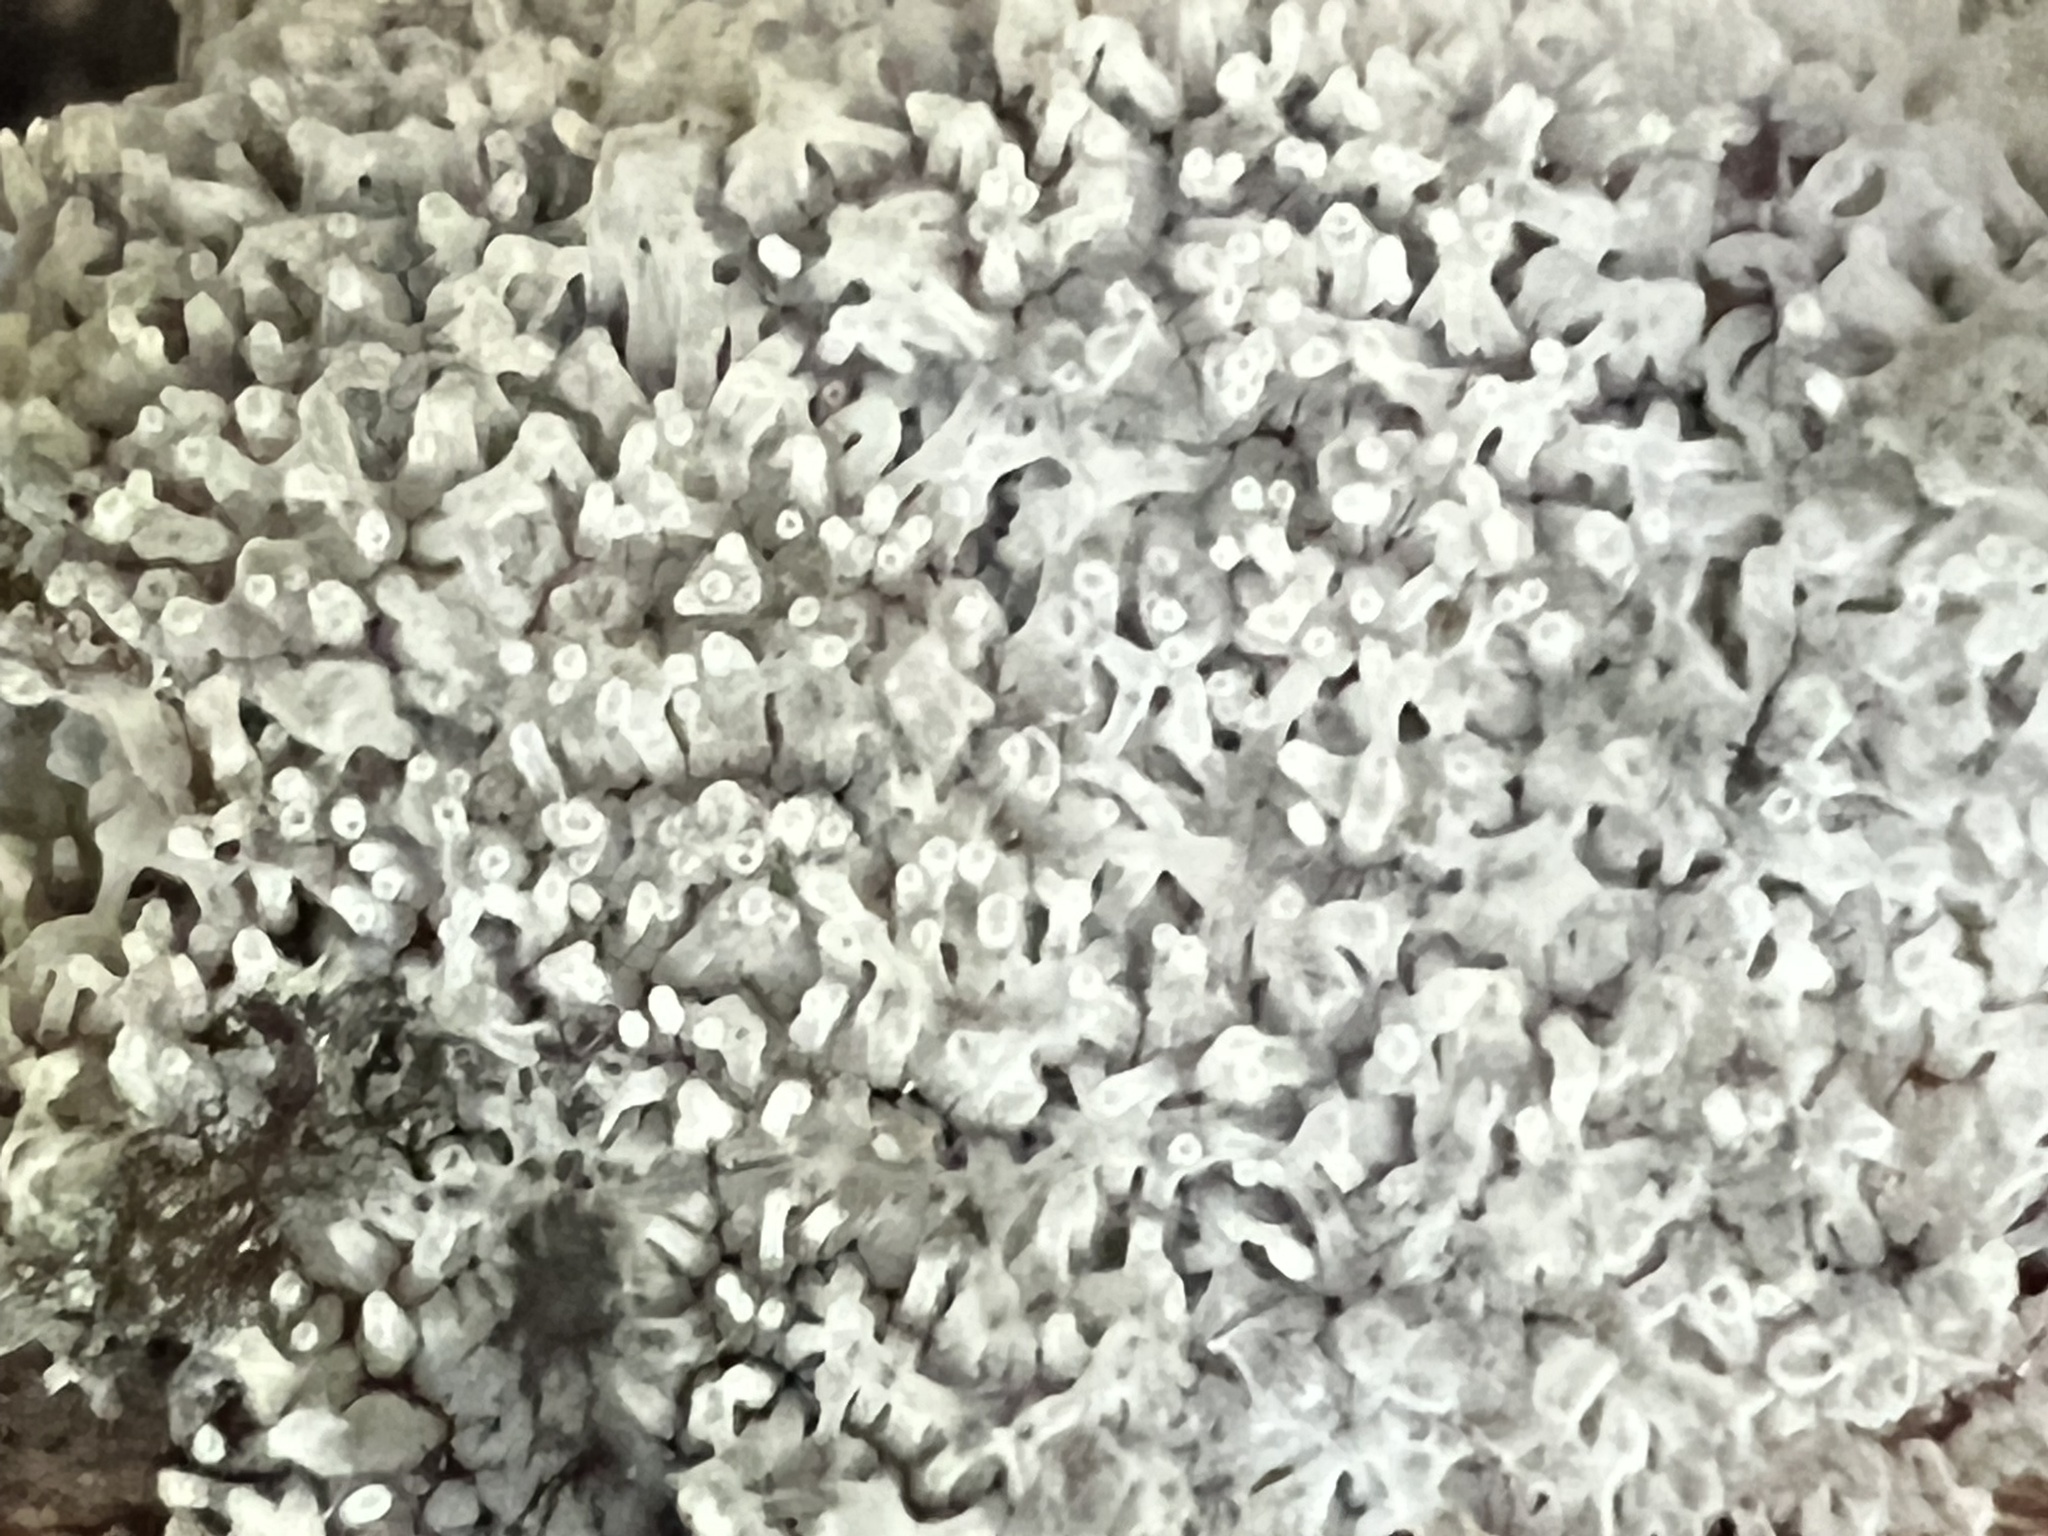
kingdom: Protozoa
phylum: Mycetozoa
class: Protosteliomycetes
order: Ceratiomyxales
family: Ceratiomyxaceae
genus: Ceratiomyxa
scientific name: Ceratiomyxa fruticulosa
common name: Honeycomb coral slime mold
